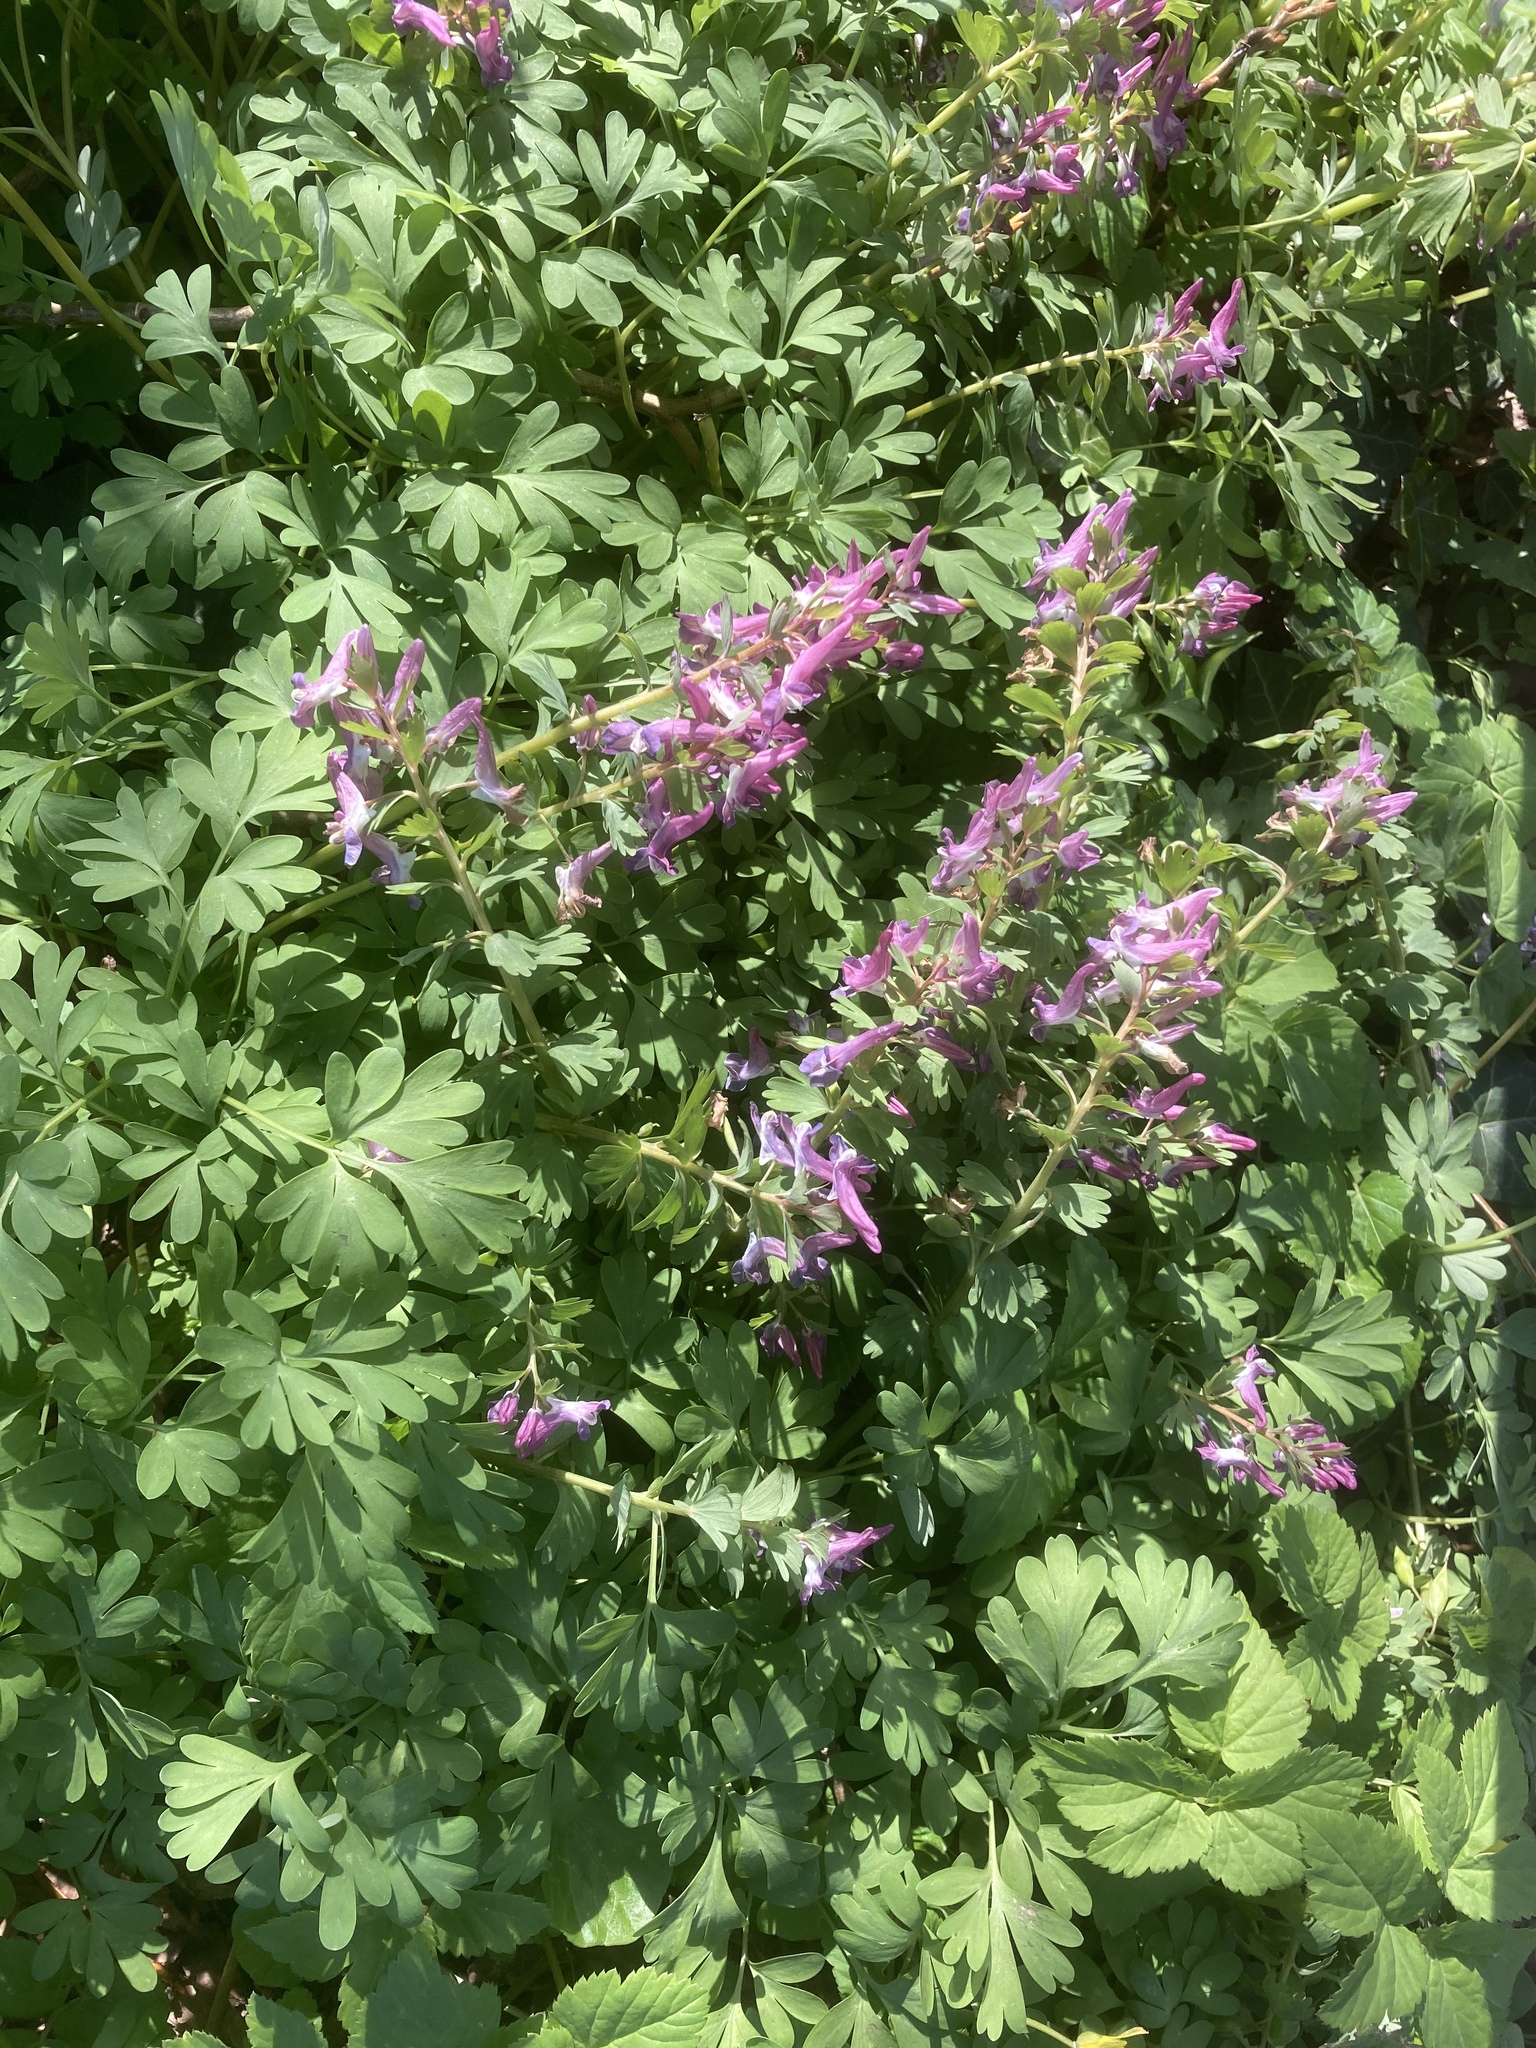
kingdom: Plantae
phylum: Tracheophyta
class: Magnoliopsida
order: Ranunculales
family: Papaveraceae
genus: Corydalis
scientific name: Corydalis solida
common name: Bird-in-a-bush
